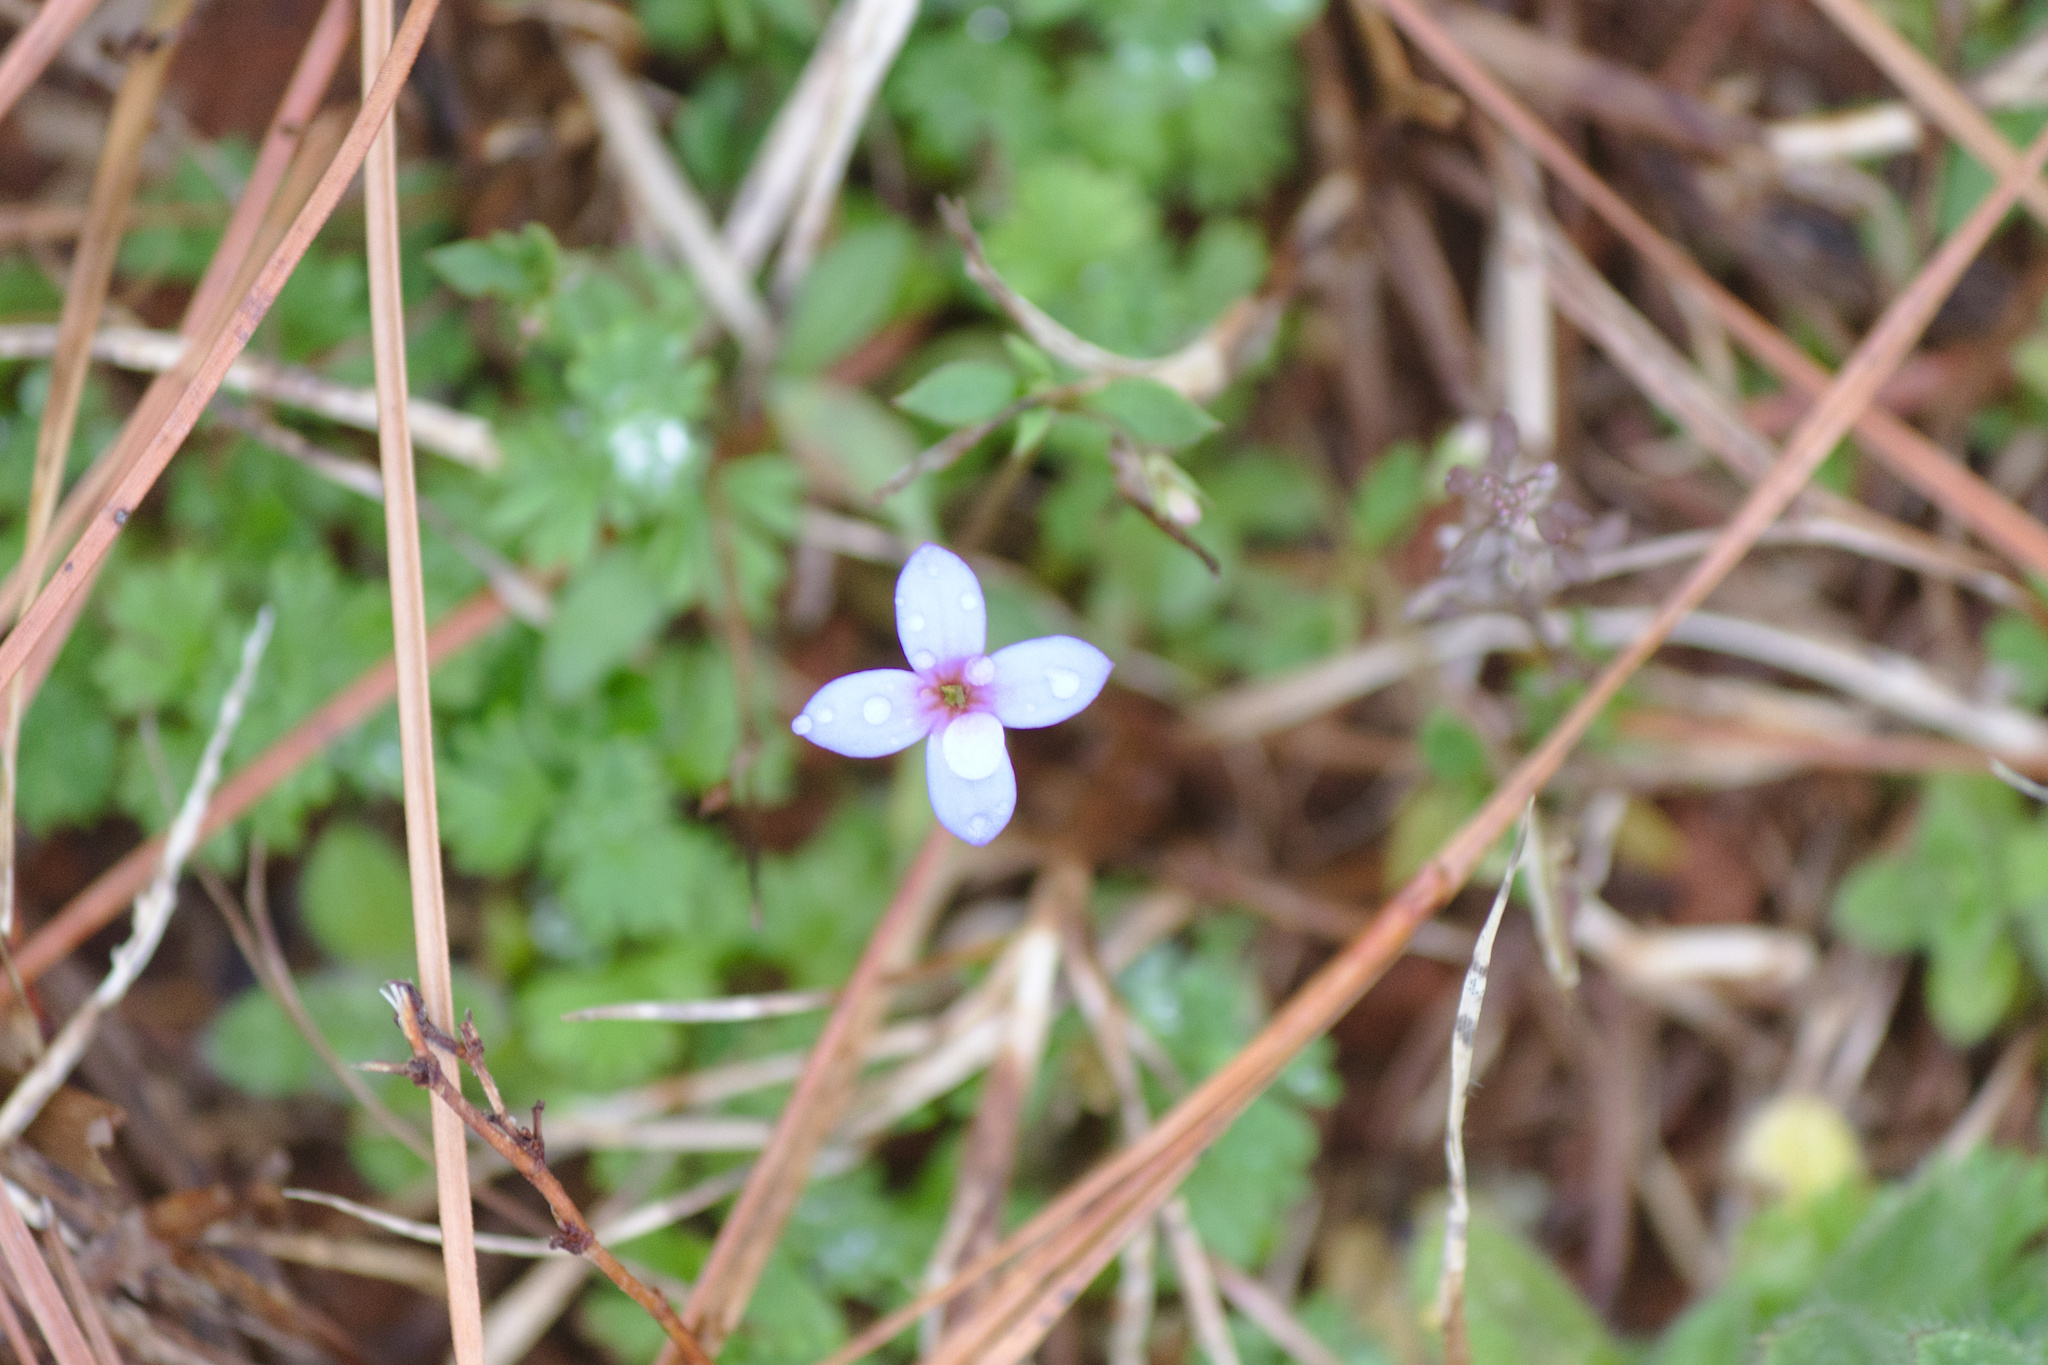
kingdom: Plantae
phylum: Tracheophyta
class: Magnoliopsida
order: Gentianales
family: Rubiaceae
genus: Houstonia
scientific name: Houstonia pusilla
